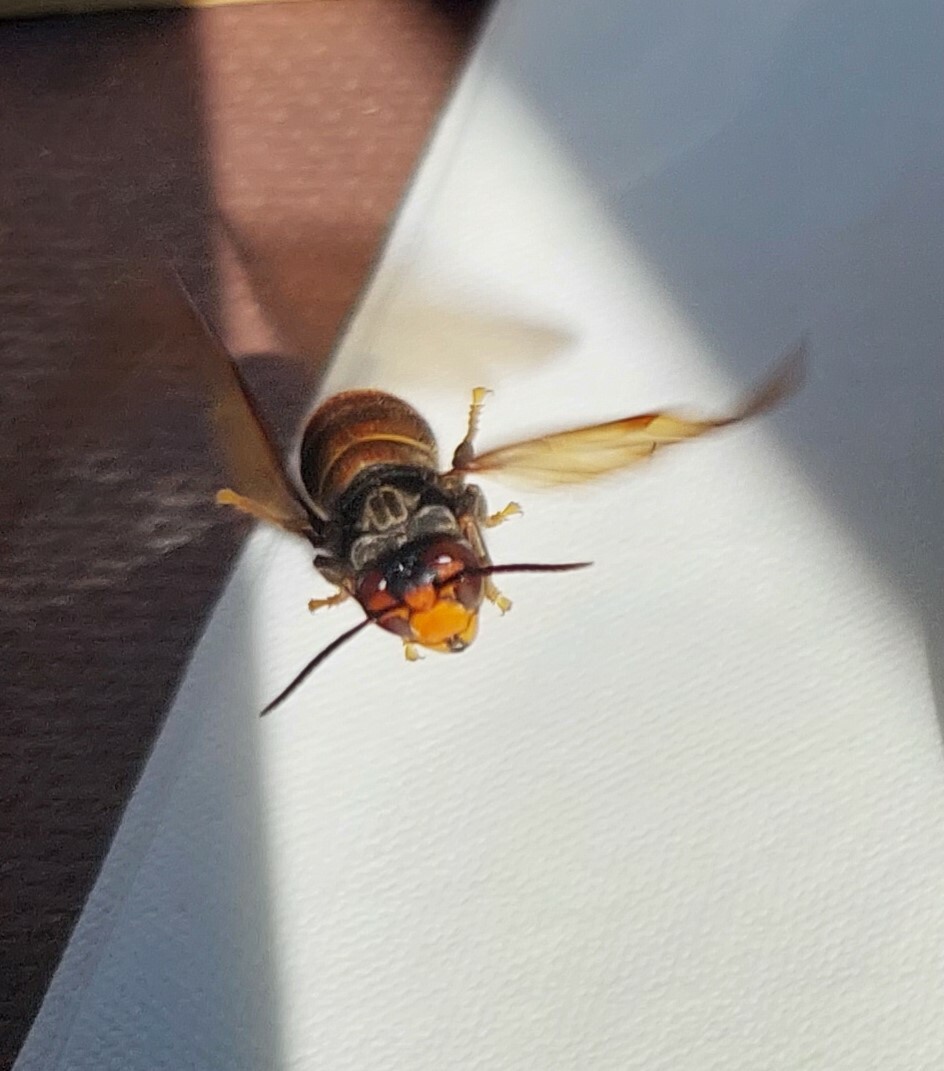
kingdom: Animalia
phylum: Arthropoda
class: Insecta
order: Hymenoptera
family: Vespidae
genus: Vespa
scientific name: Vespa velutina
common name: Asian hornet
